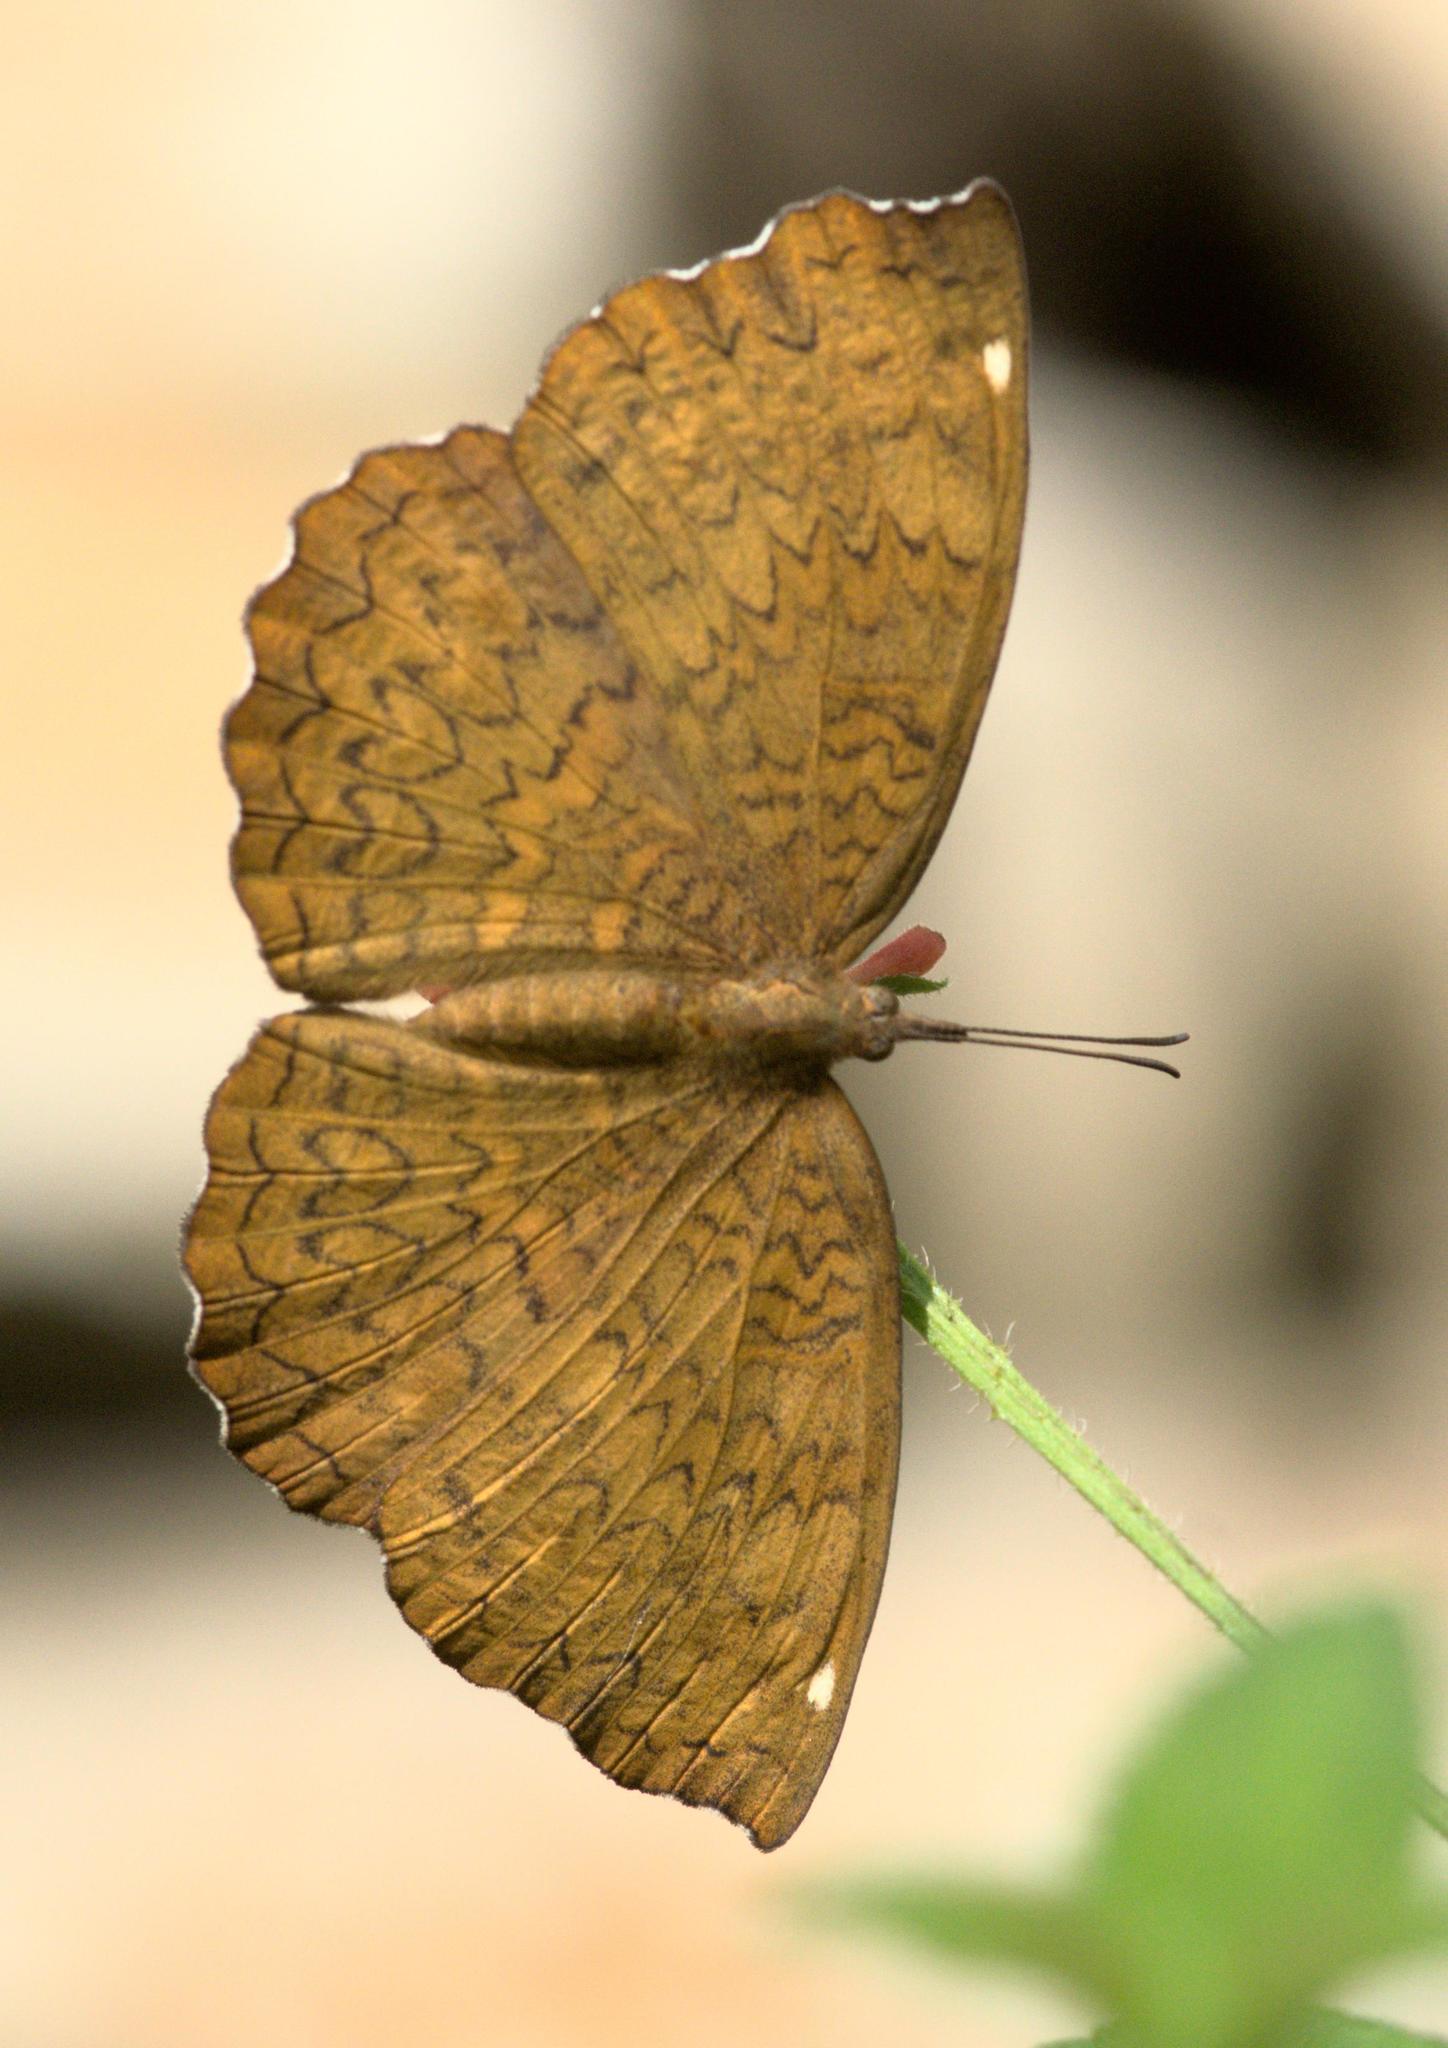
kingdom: Animalia
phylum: Arthropoda
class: Insecta
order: Lepidoptera
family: Nymphalidae
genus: Ariadne
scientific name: Ariadne merione
